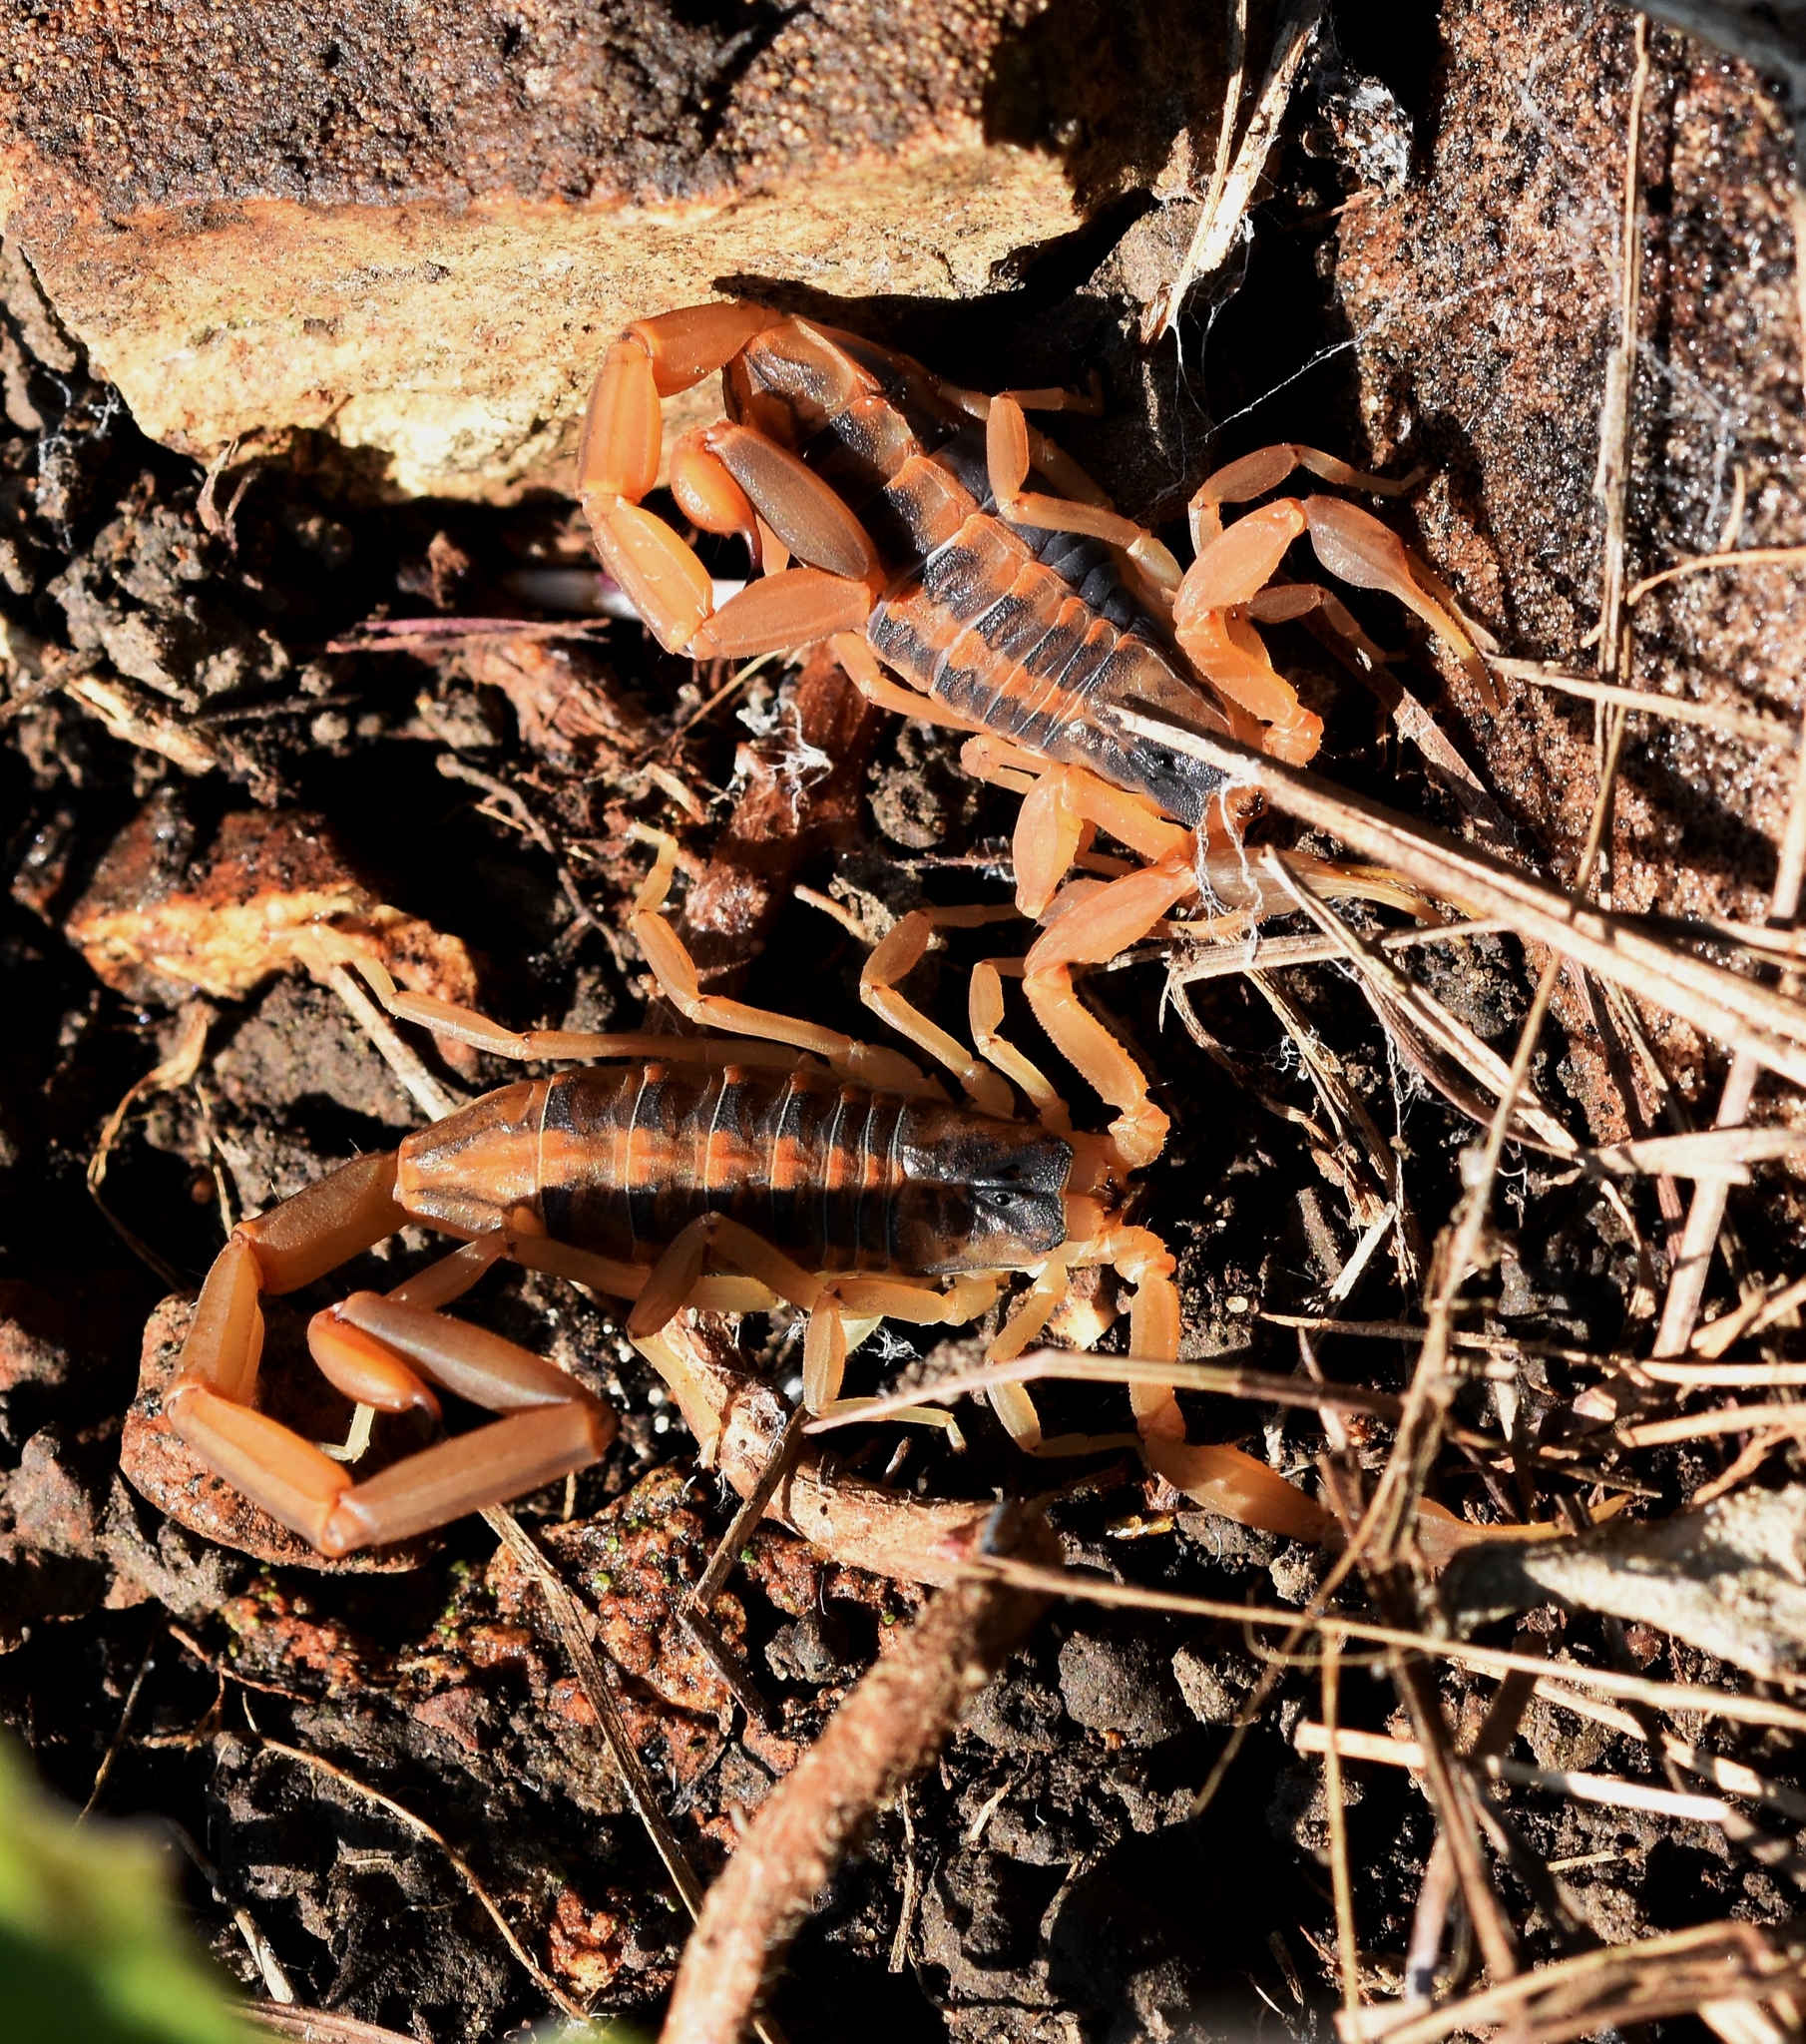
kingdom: Animalia
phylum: Arthropoda
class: Arachnida
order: Scorpiones
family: Buthidae
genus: Centruroides
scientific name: Centruroides vittatus
